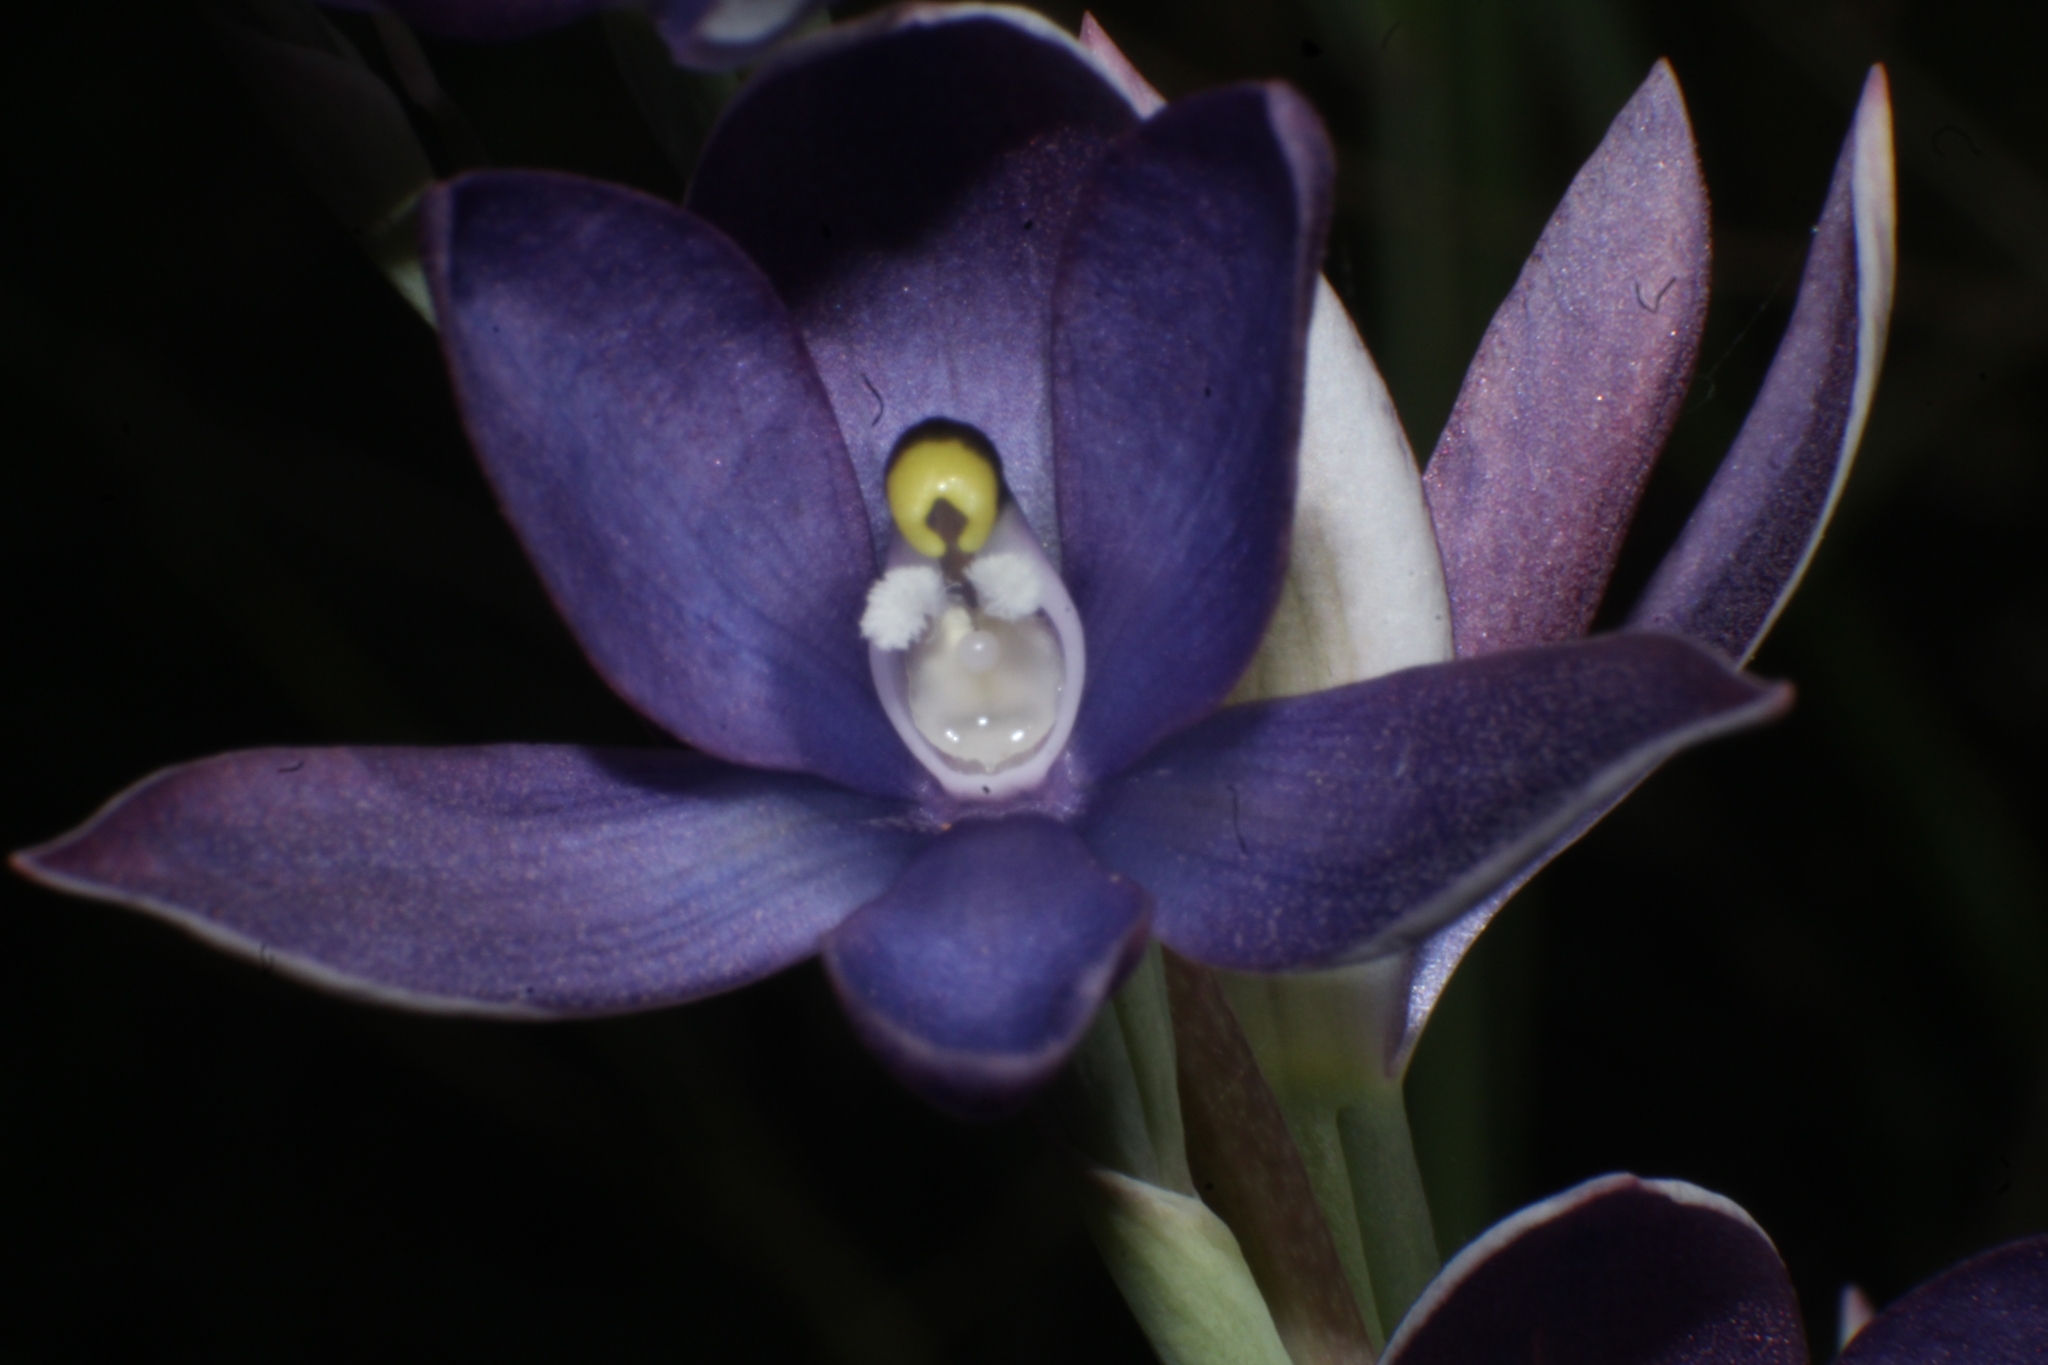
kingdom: Plantae
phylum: Tracheophyta
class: Liliopsida
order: Asparagales
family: Orchidaceae
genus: Thelymitra
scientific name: Thelymitra macrophylla
